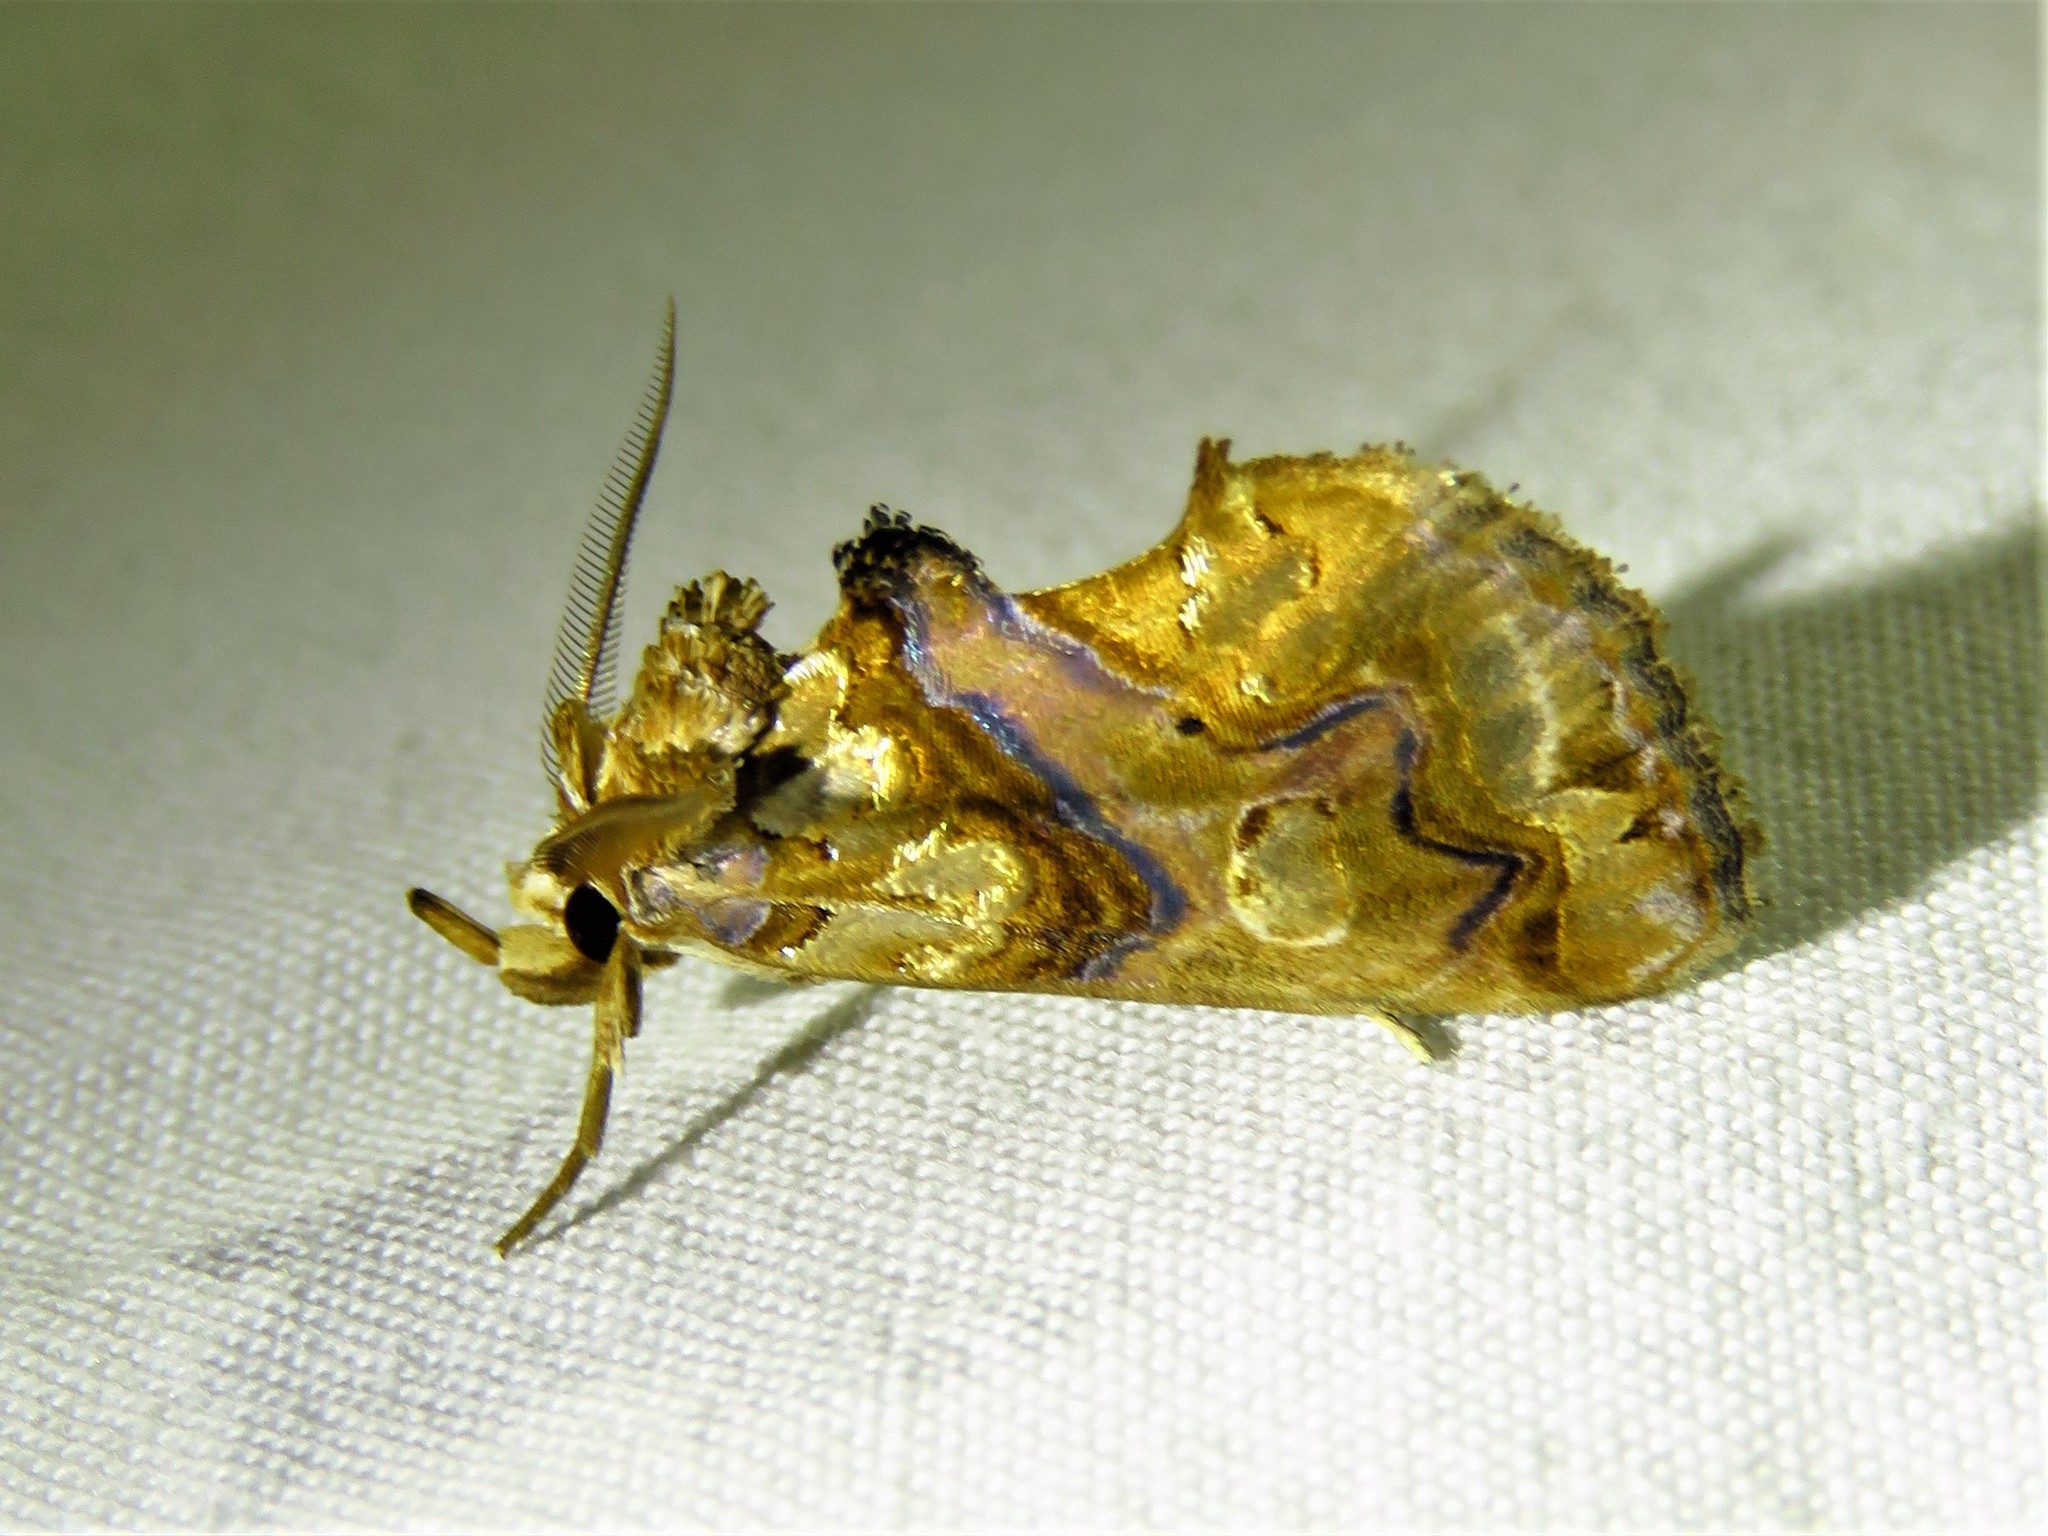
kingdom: Animalia
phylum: Arthropoda
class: Insecta
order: Lepidoptera
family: Erebidae
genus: Plusiodonta
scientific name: Plusiodonta compressipalpis
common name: Moonseed moth
